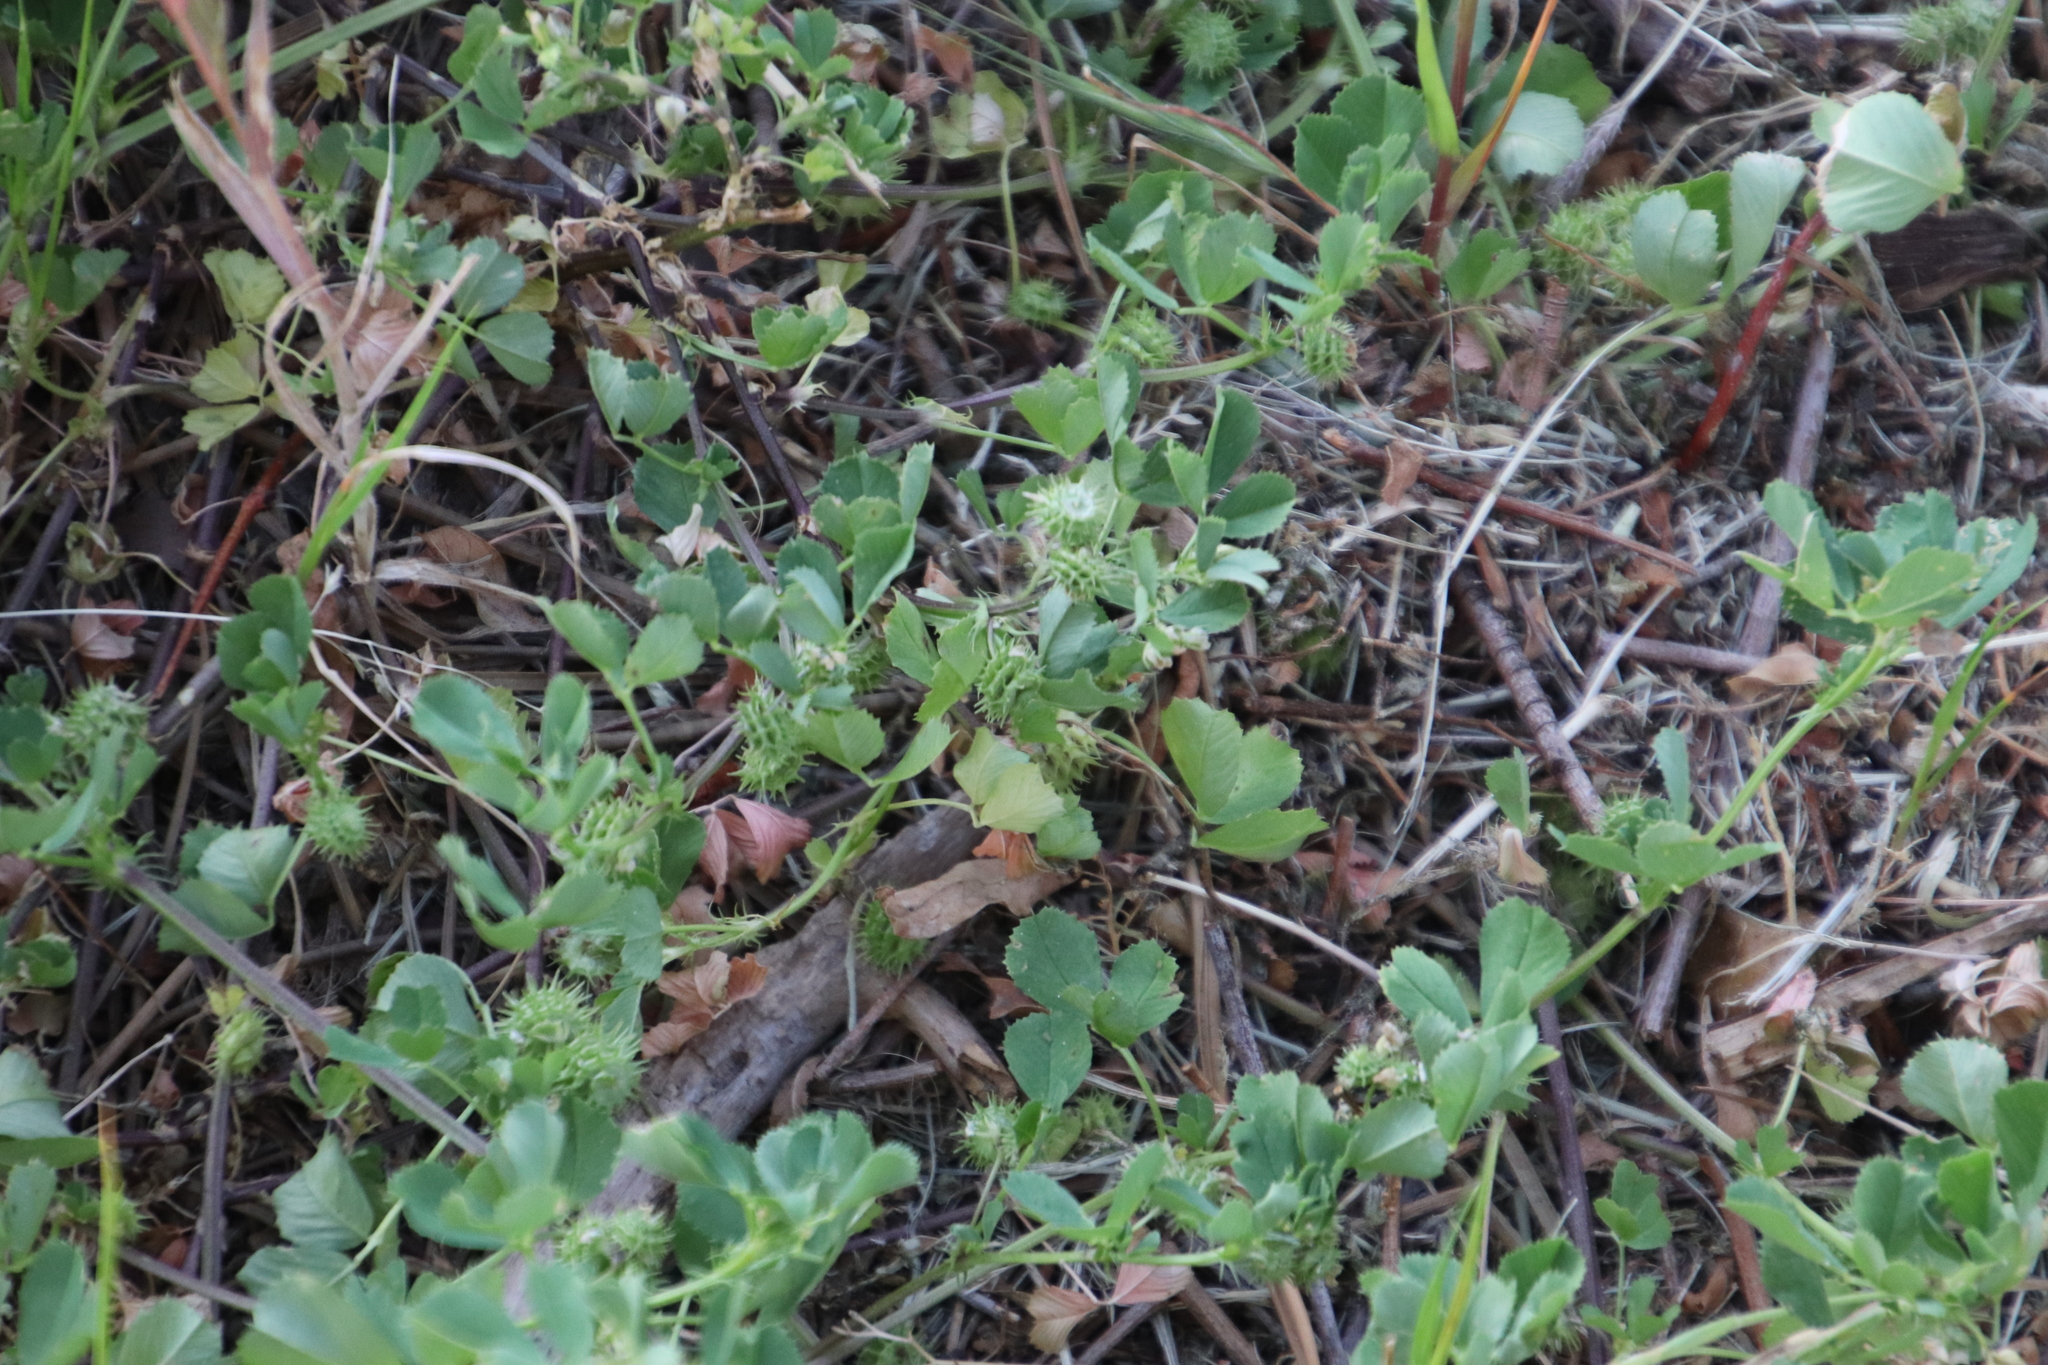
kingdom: Plantae
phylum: Tracheophyta
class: Magnoliopsida
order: Fabales
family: Fabaceae
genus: Medicago
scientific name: Medicago polymorpha
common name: Burclover
